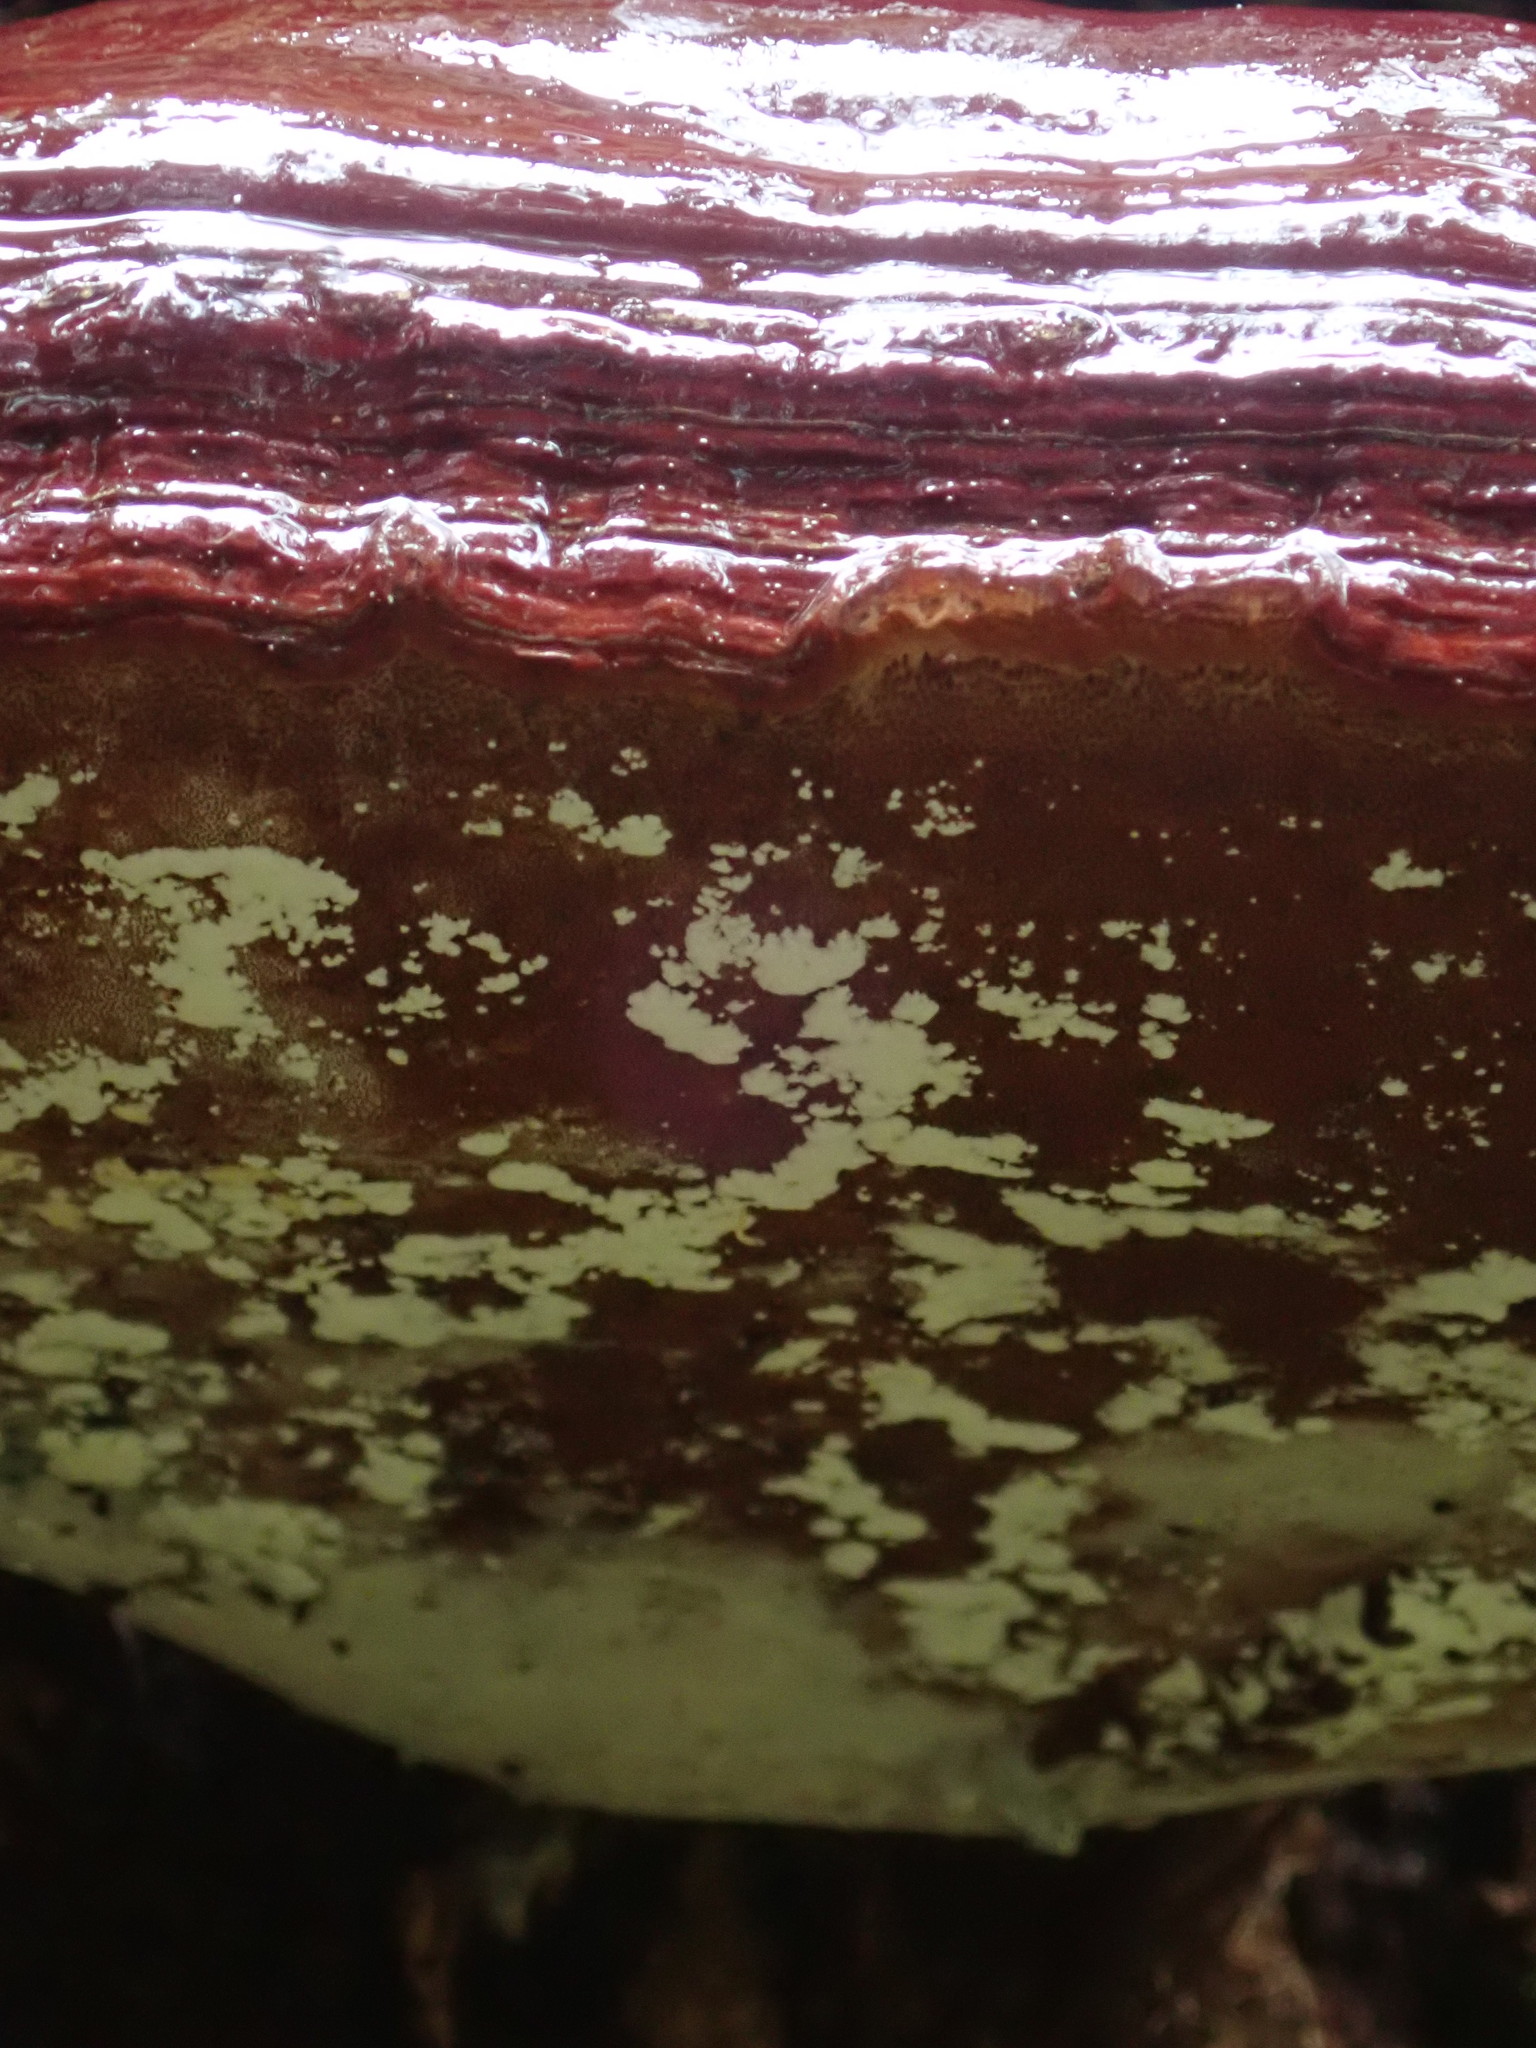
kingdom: Fungi
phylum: Basidiomycota
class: Agaricomycetes
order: Polyporales
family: Polyporaceae
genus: Ganoderma
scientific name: Ganoderma oregonense
